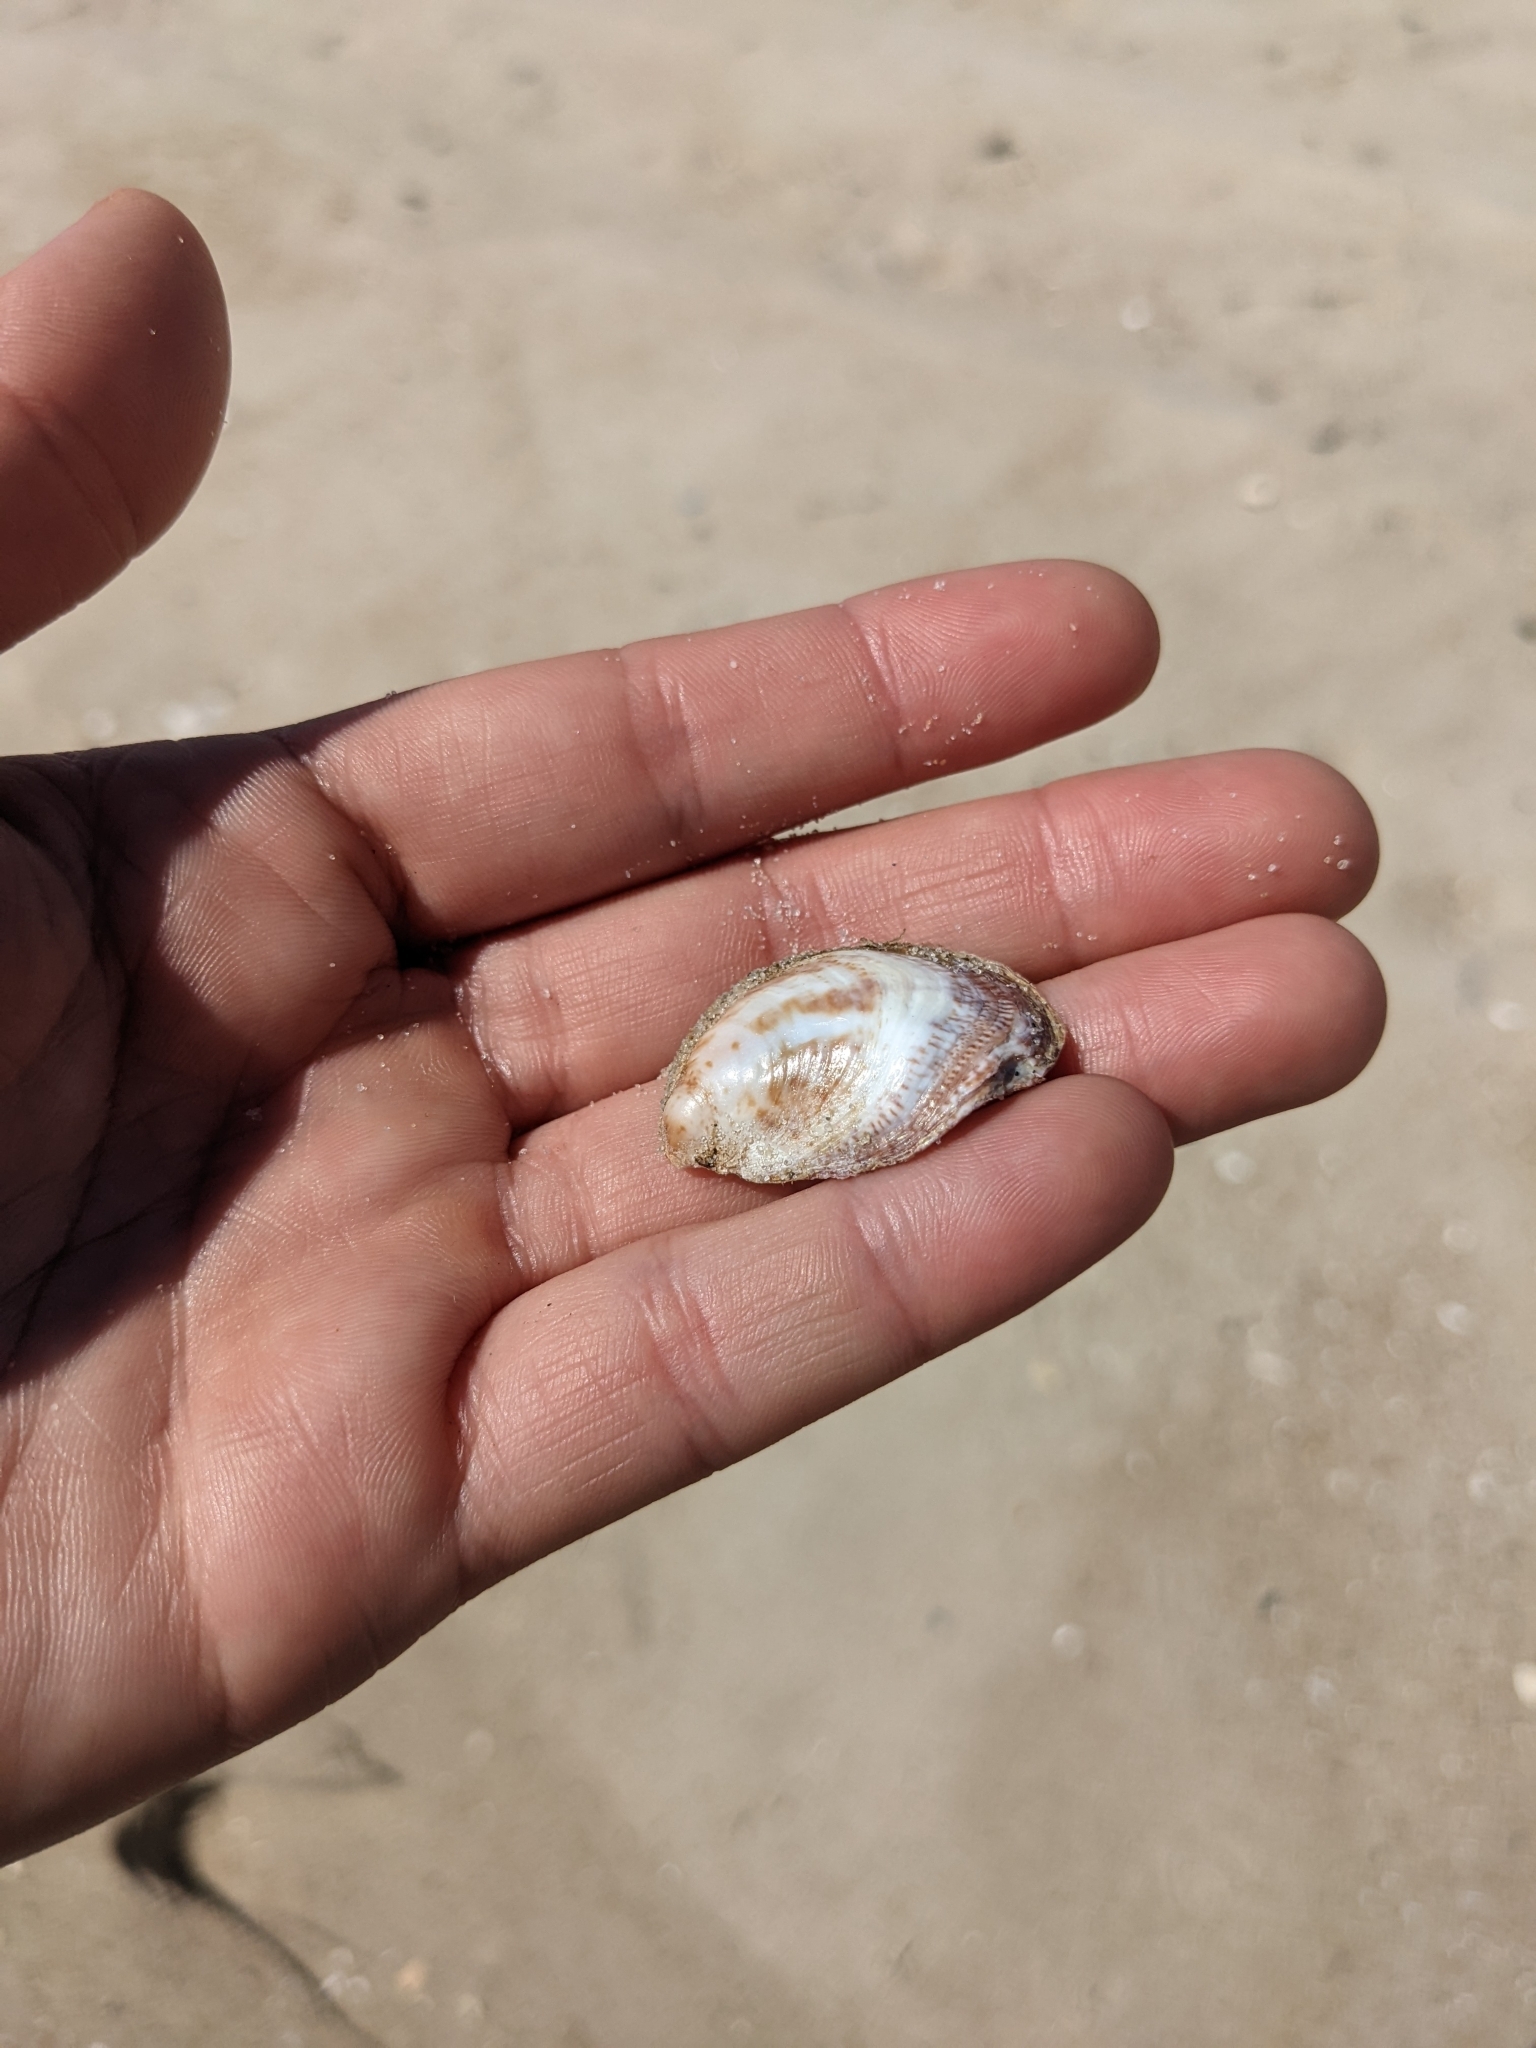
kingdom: Animalia
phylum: Mollusca
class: Gastropoda
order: Littorinimorpha
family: Calyptraeidae
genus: Crepidula
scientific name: Crepidula fornicata
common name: Slipper limpet
